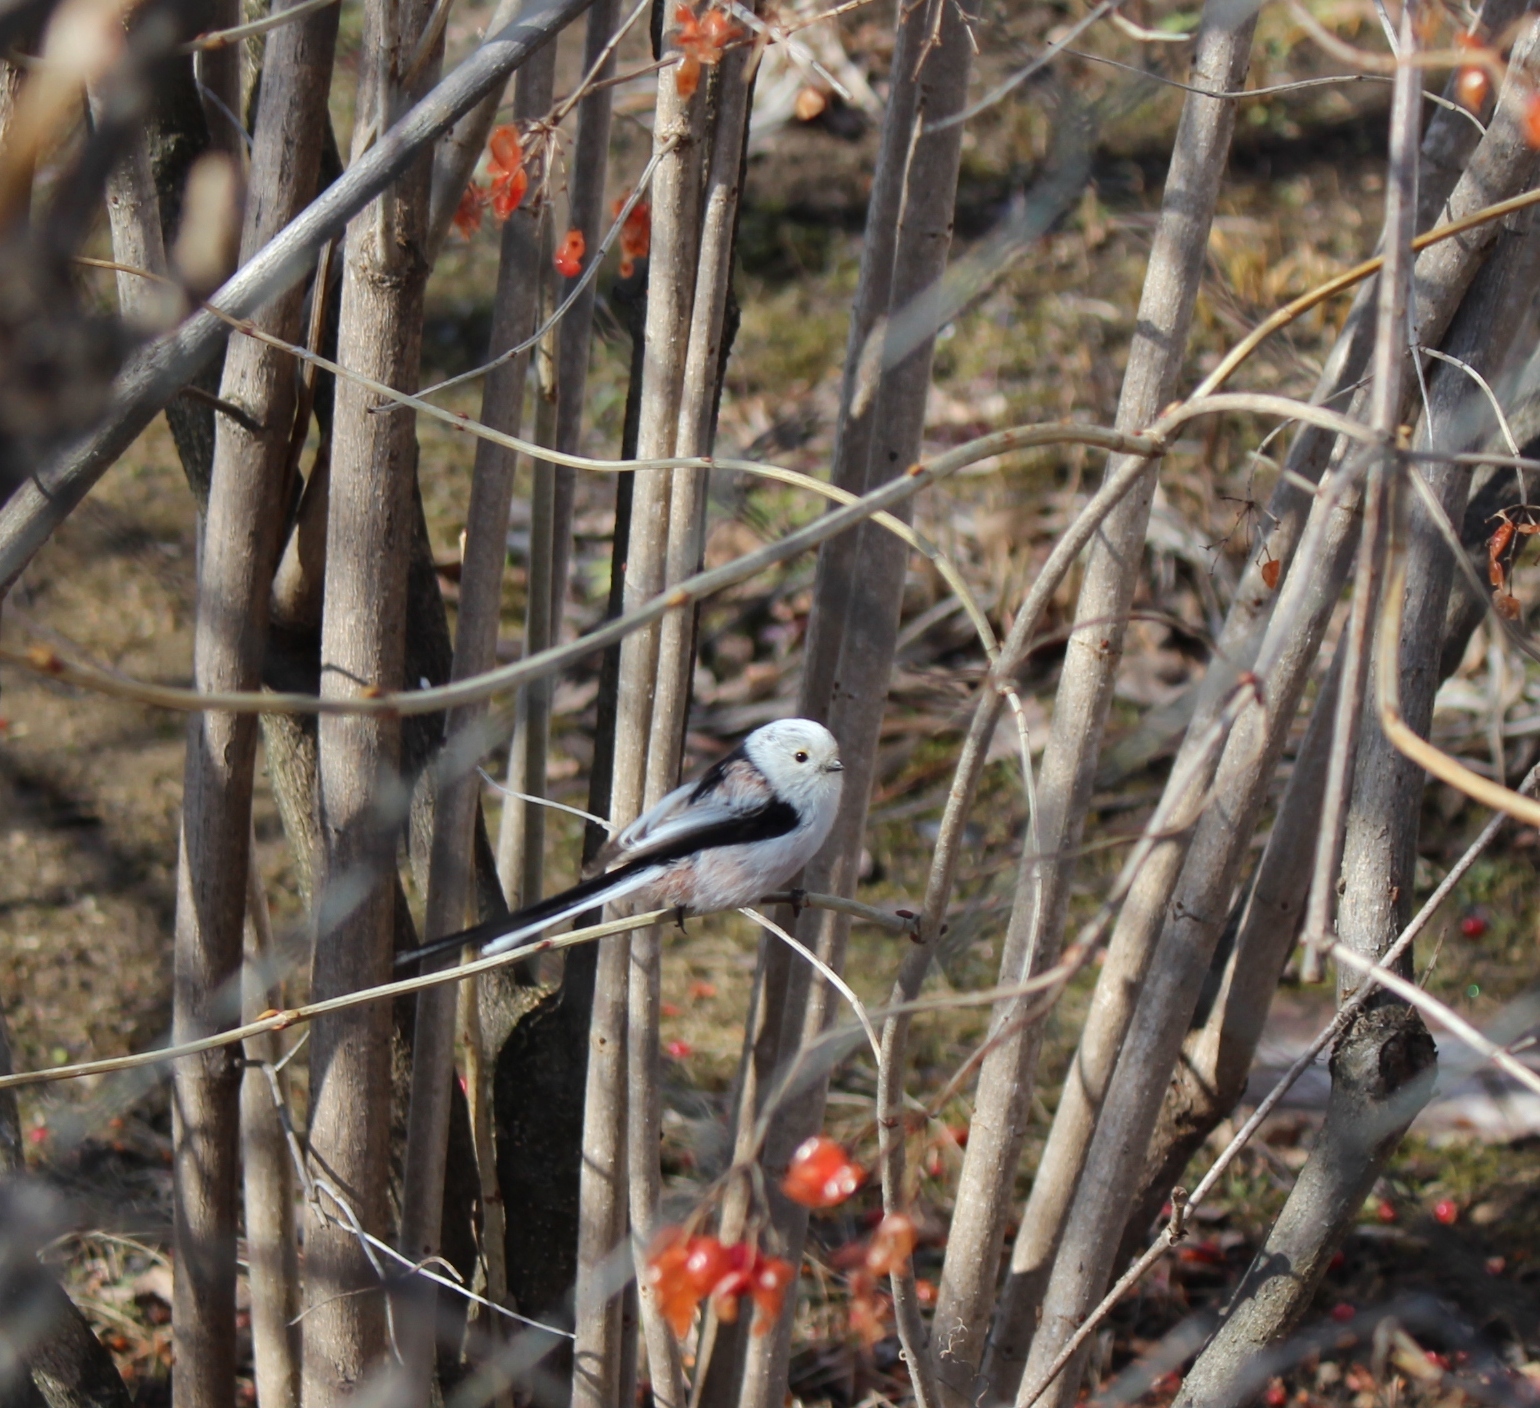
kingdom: Animalia
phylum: Chordata
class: Aves
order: Passeriformes
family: Aegithalidae
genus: Aegithalos
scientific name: Aegithalos caudatus
